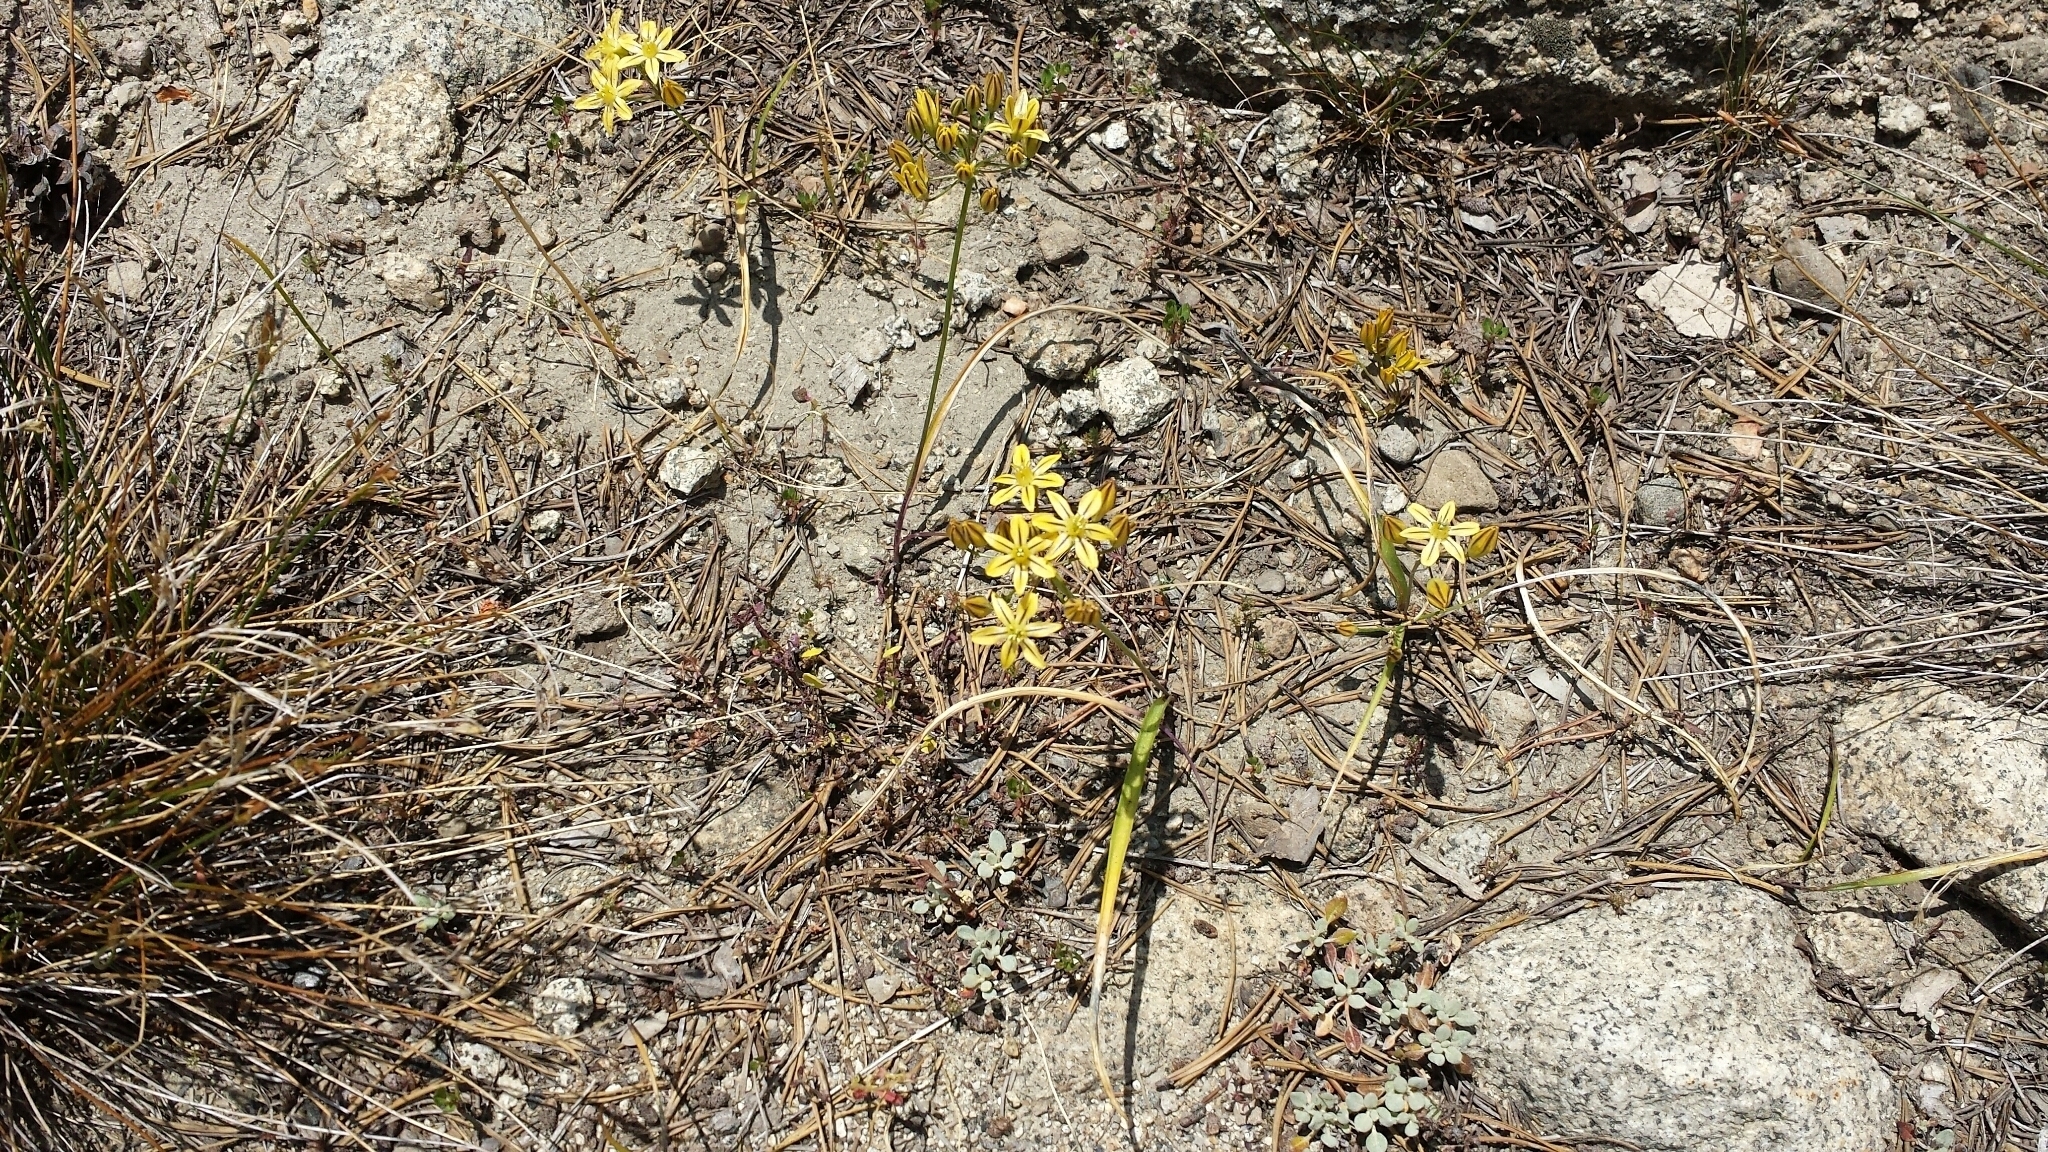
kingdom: Plantae
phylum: Tracheophyta
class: Liliopsida
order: Asparagales
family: Asparagaceae
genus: Triteleia
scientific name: Triteleia ixioides
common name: Yellow-brodiaea
